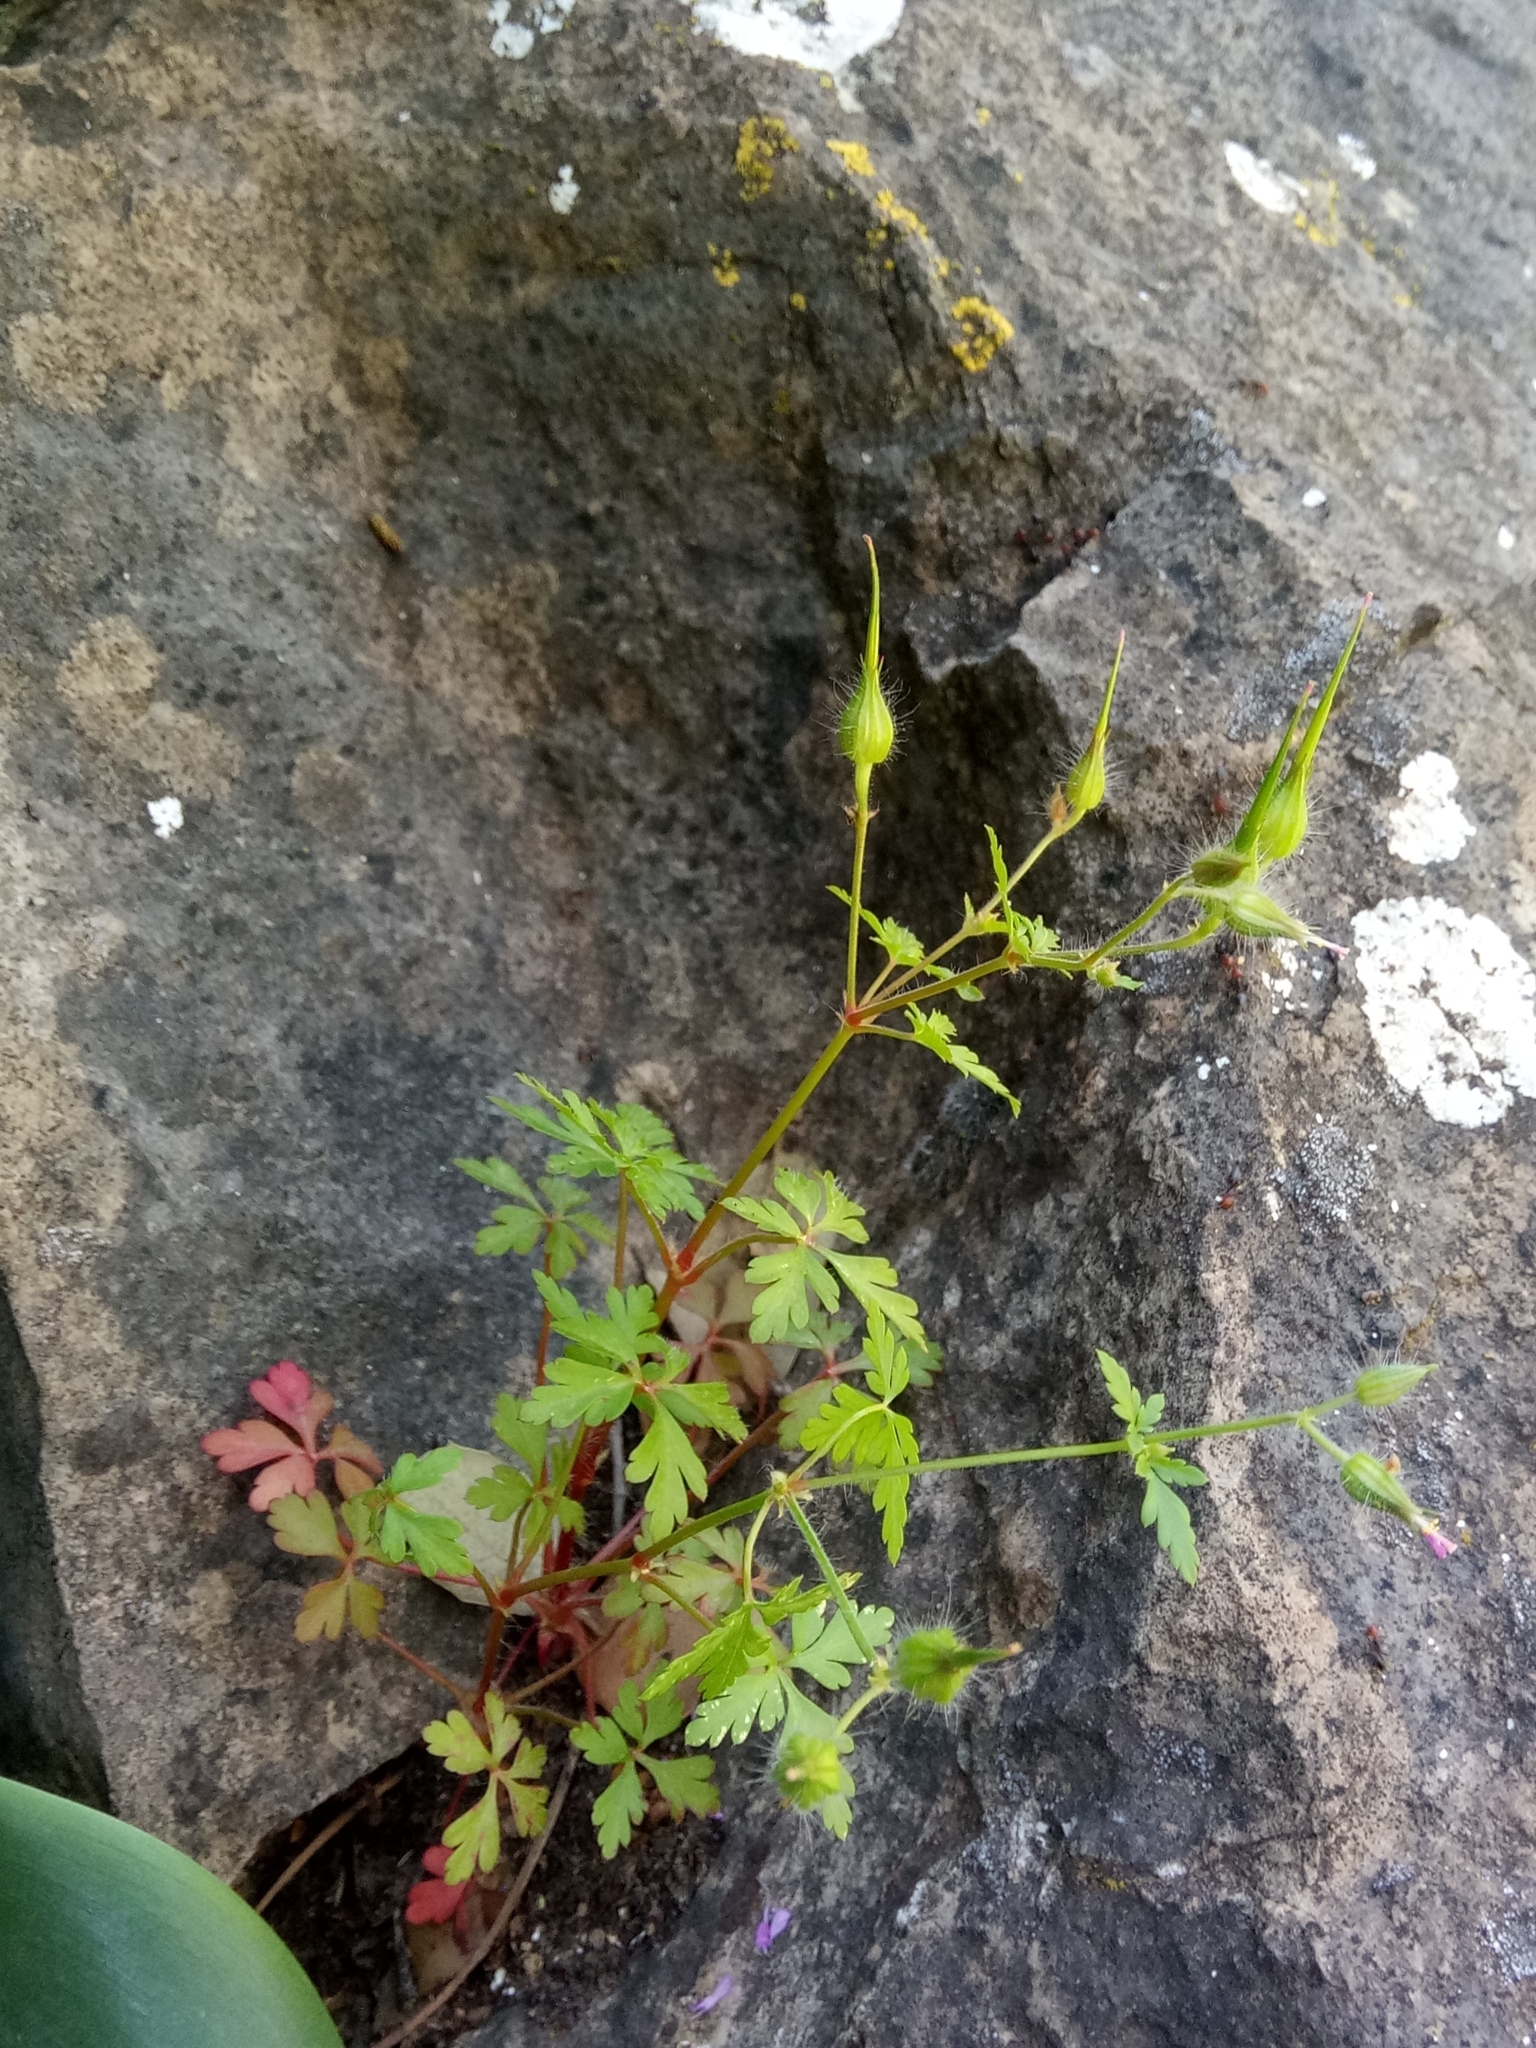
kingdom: Plantae
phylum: Tracheophyta
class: Magnoliopsida
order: Geraniales
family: Geraniaceae
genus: Geranium
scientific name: Geranium purpureum
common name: Little-robin
